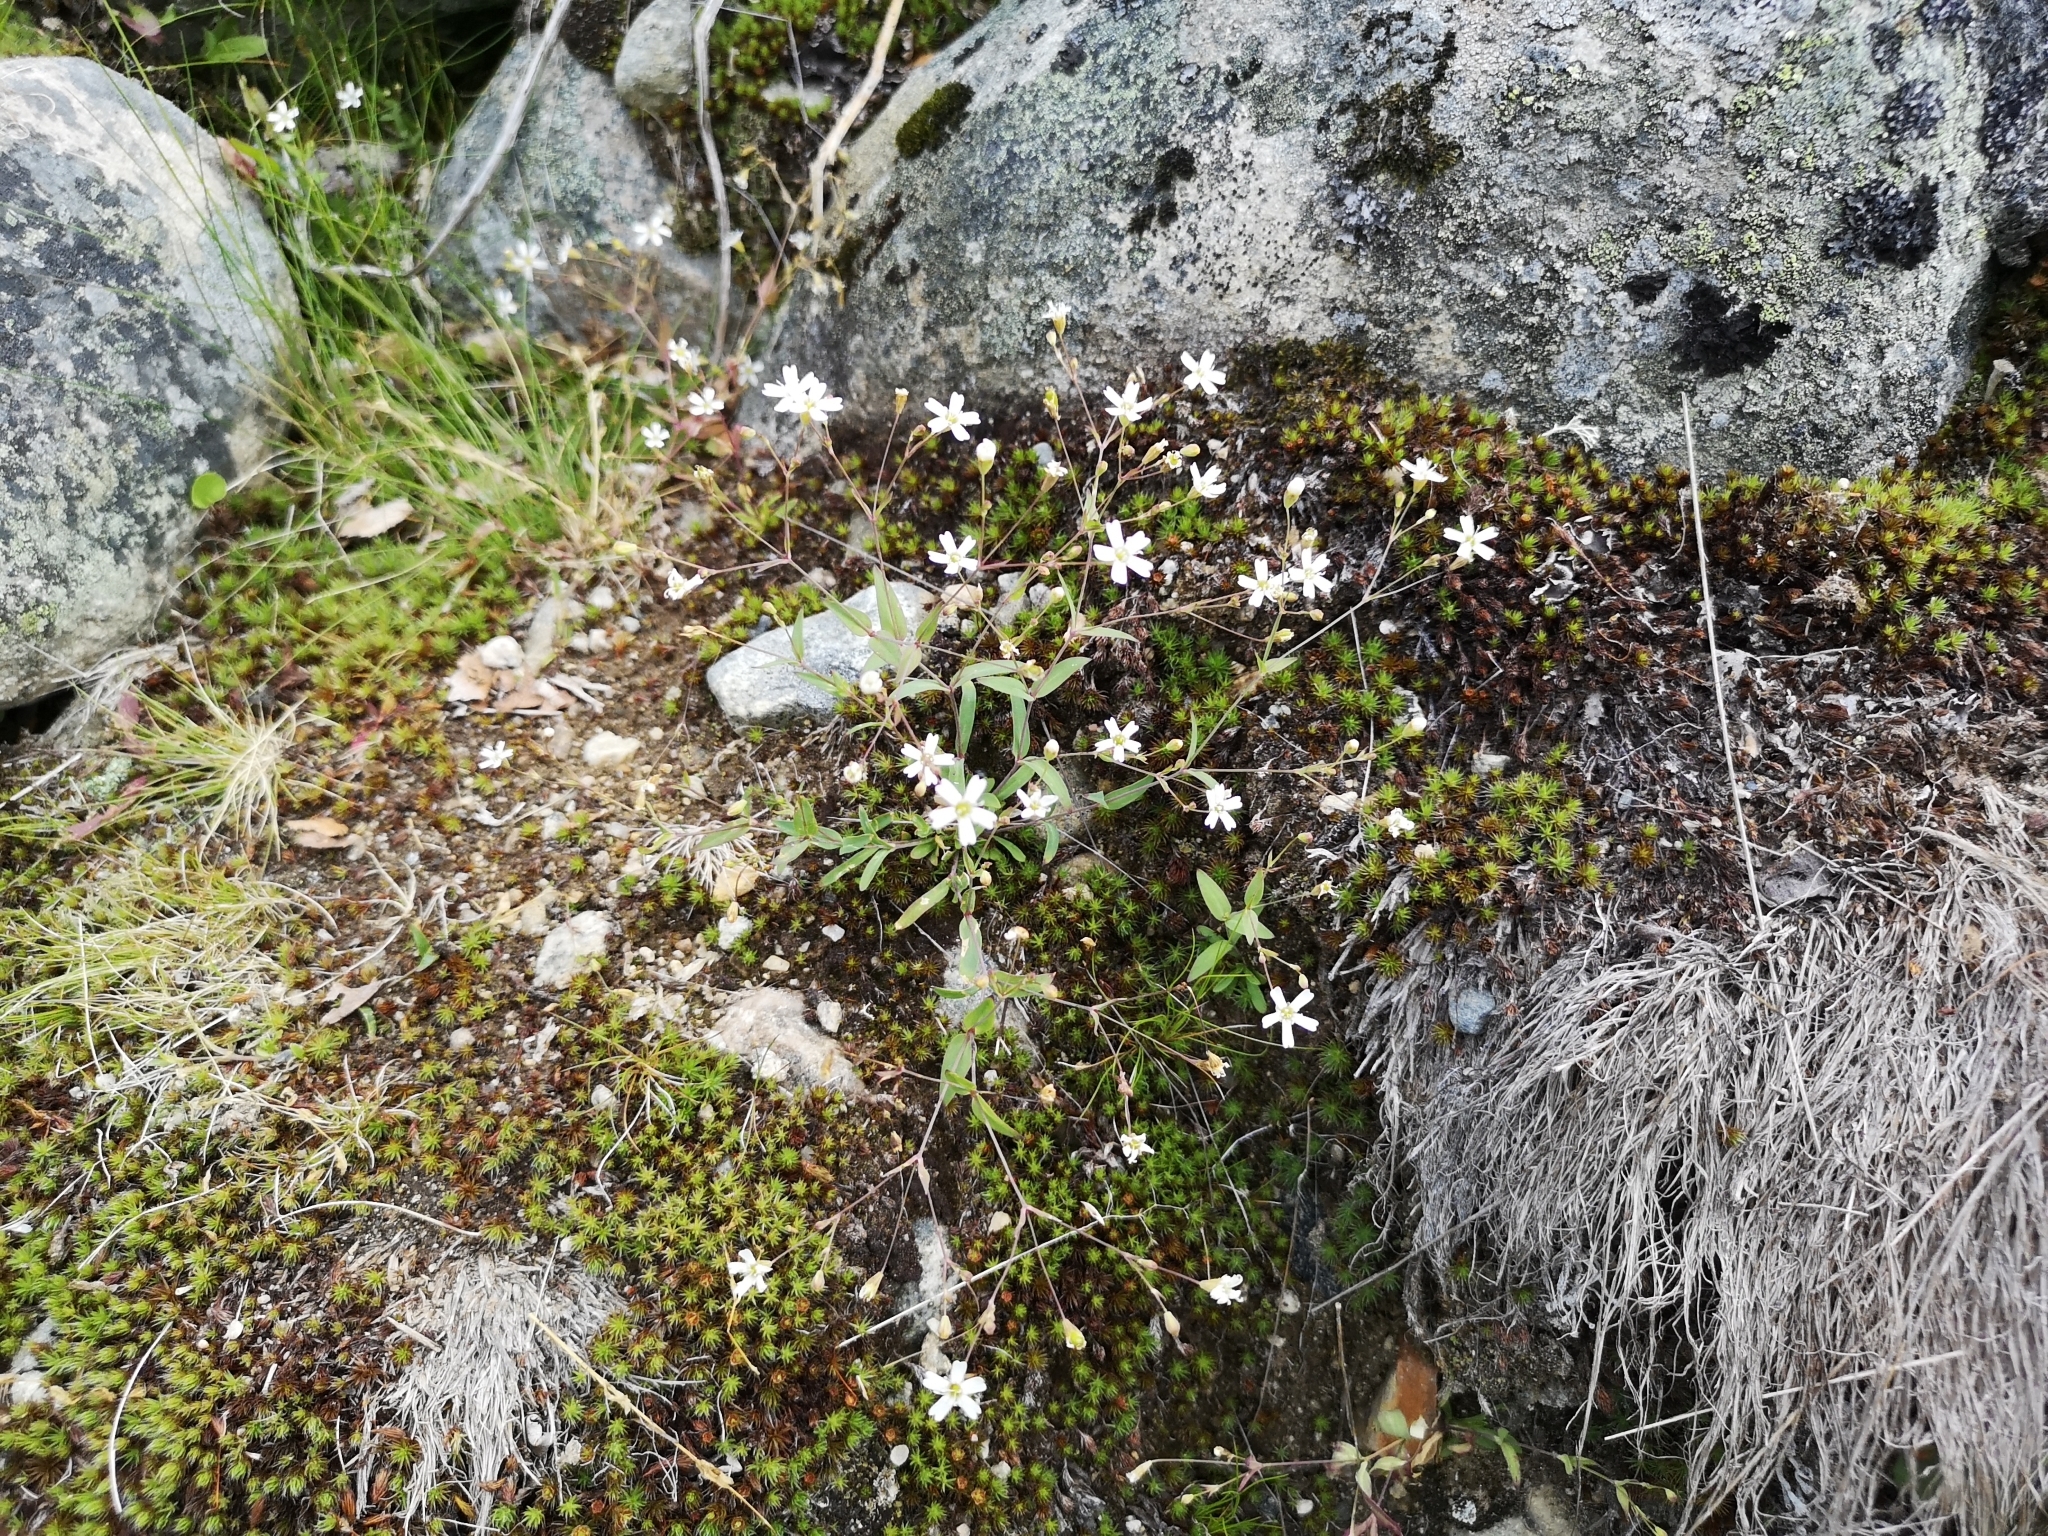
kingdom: Plantae
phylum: Tracheophyta
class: Magnoliopsida
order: Caryophyllales
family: Caryophyllaceae
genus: Atocion
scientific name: Atocion rupestre
